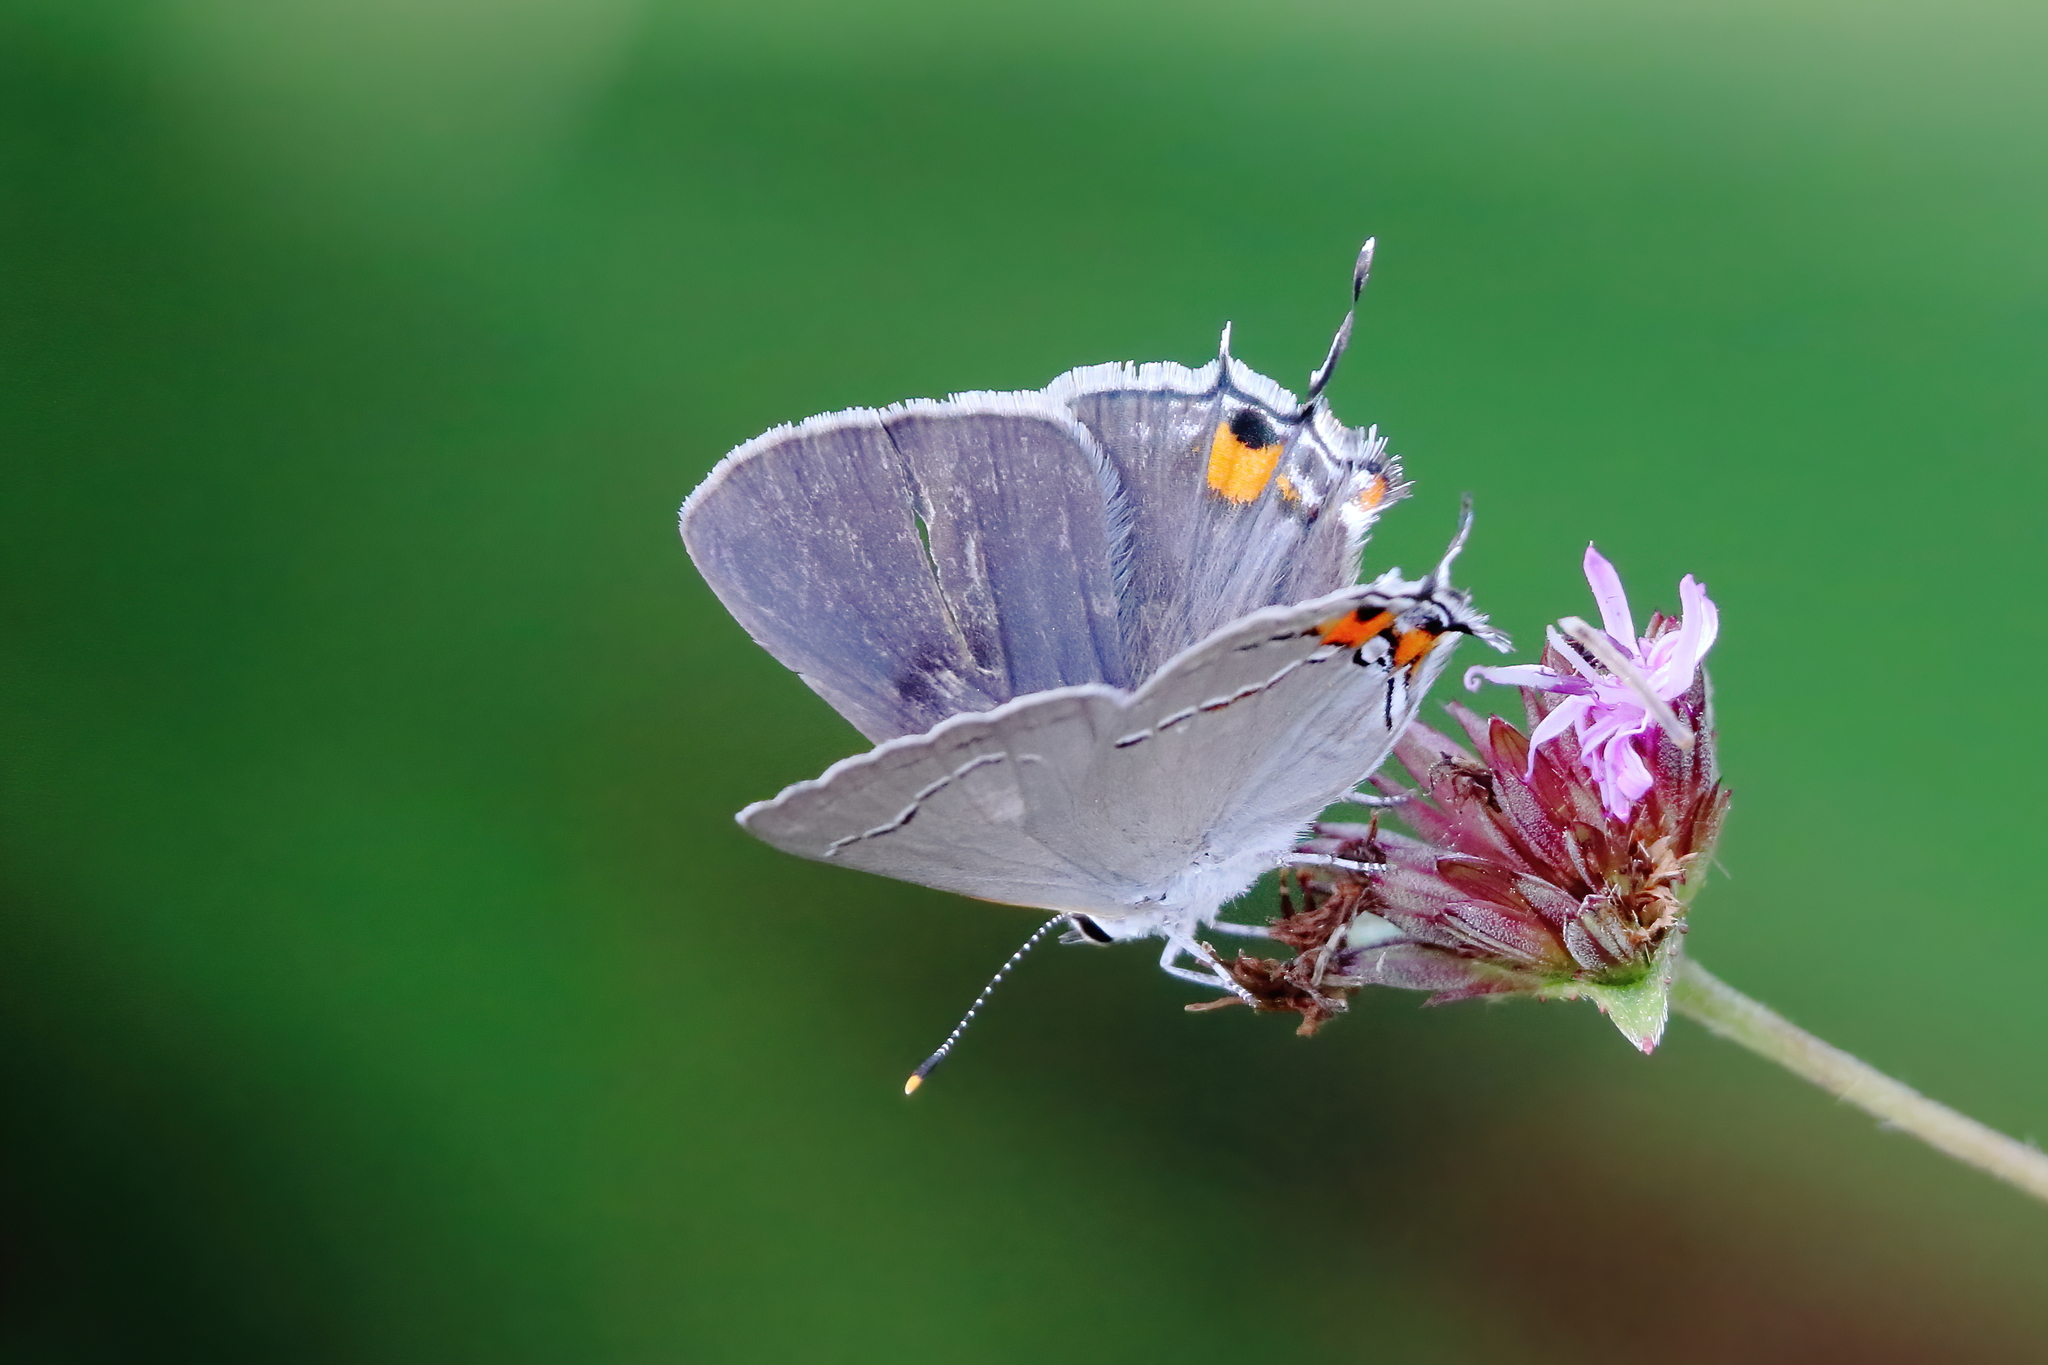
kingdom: Animalia
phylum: Arthropoda
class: Insecta
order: Lepidoptera
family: Lycaenidae
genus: Strymon
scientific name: Strymon melinus
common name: Gray hairstreak
